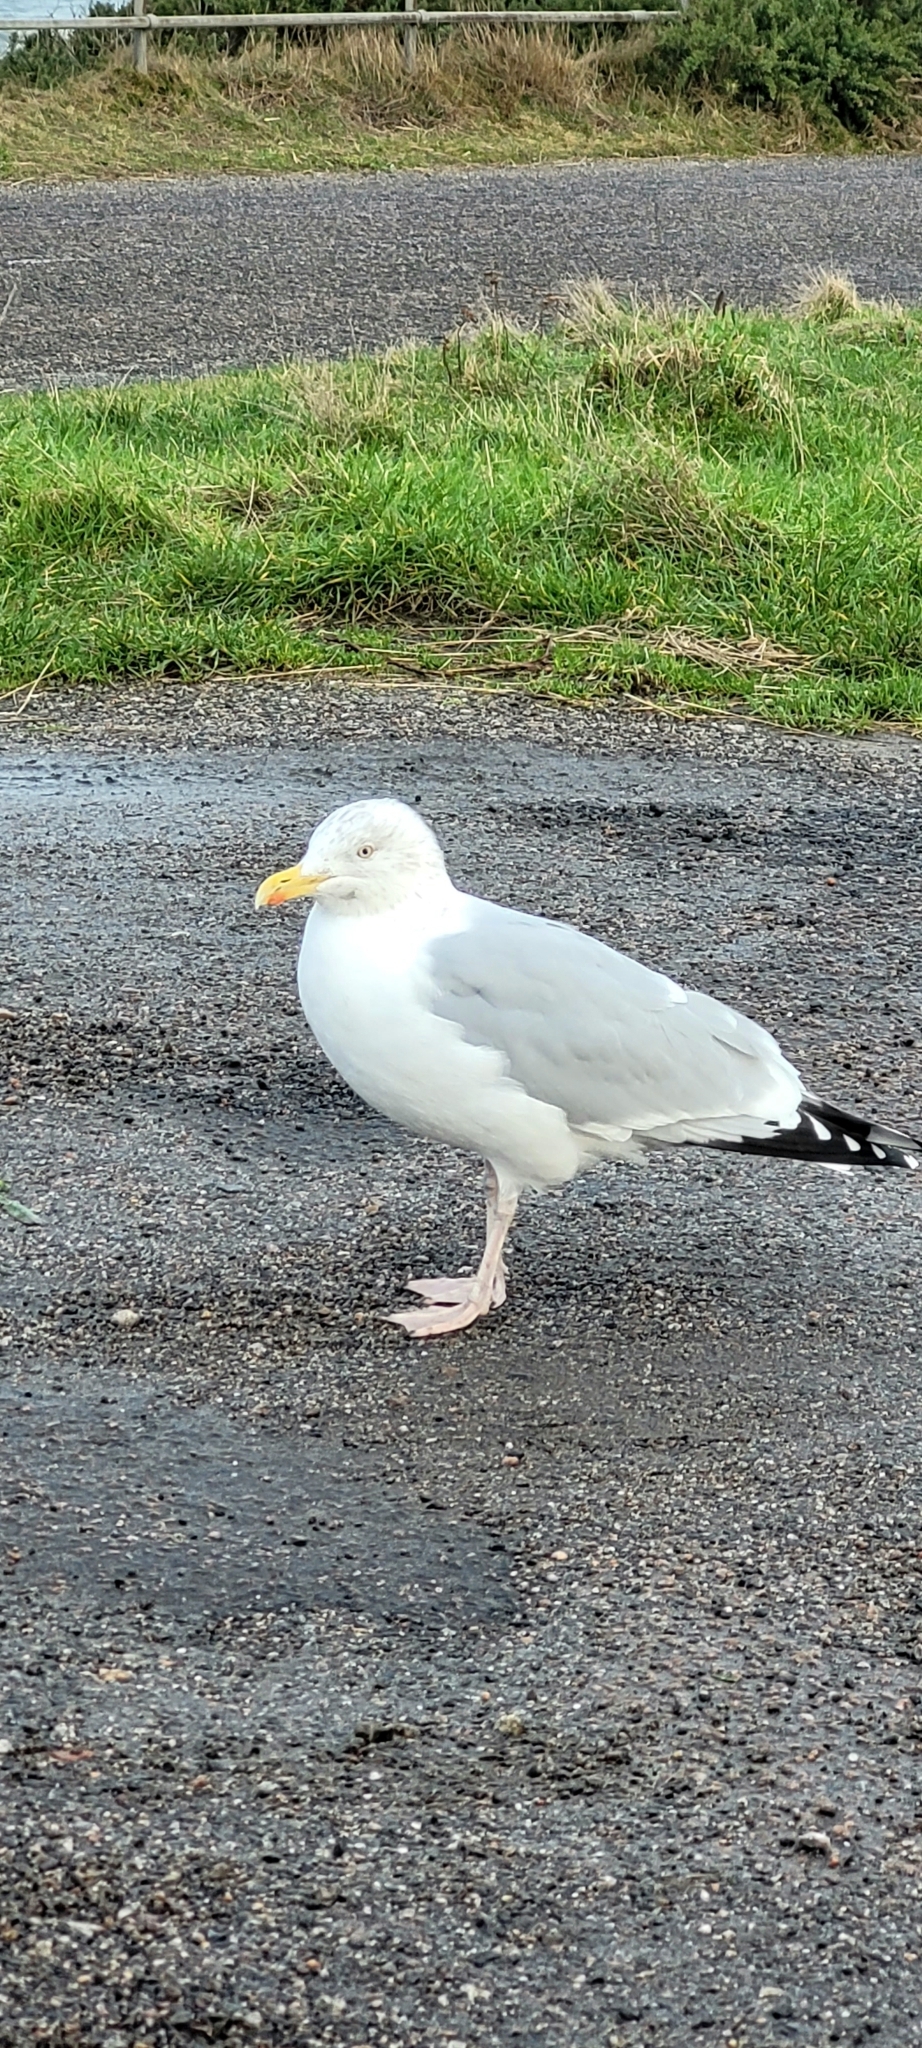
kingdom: Animalia
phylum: Chordata
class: Aves
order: Charadriiformes
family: Laridae
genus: Larus
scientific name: Larus argentatus
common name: Herring gull
